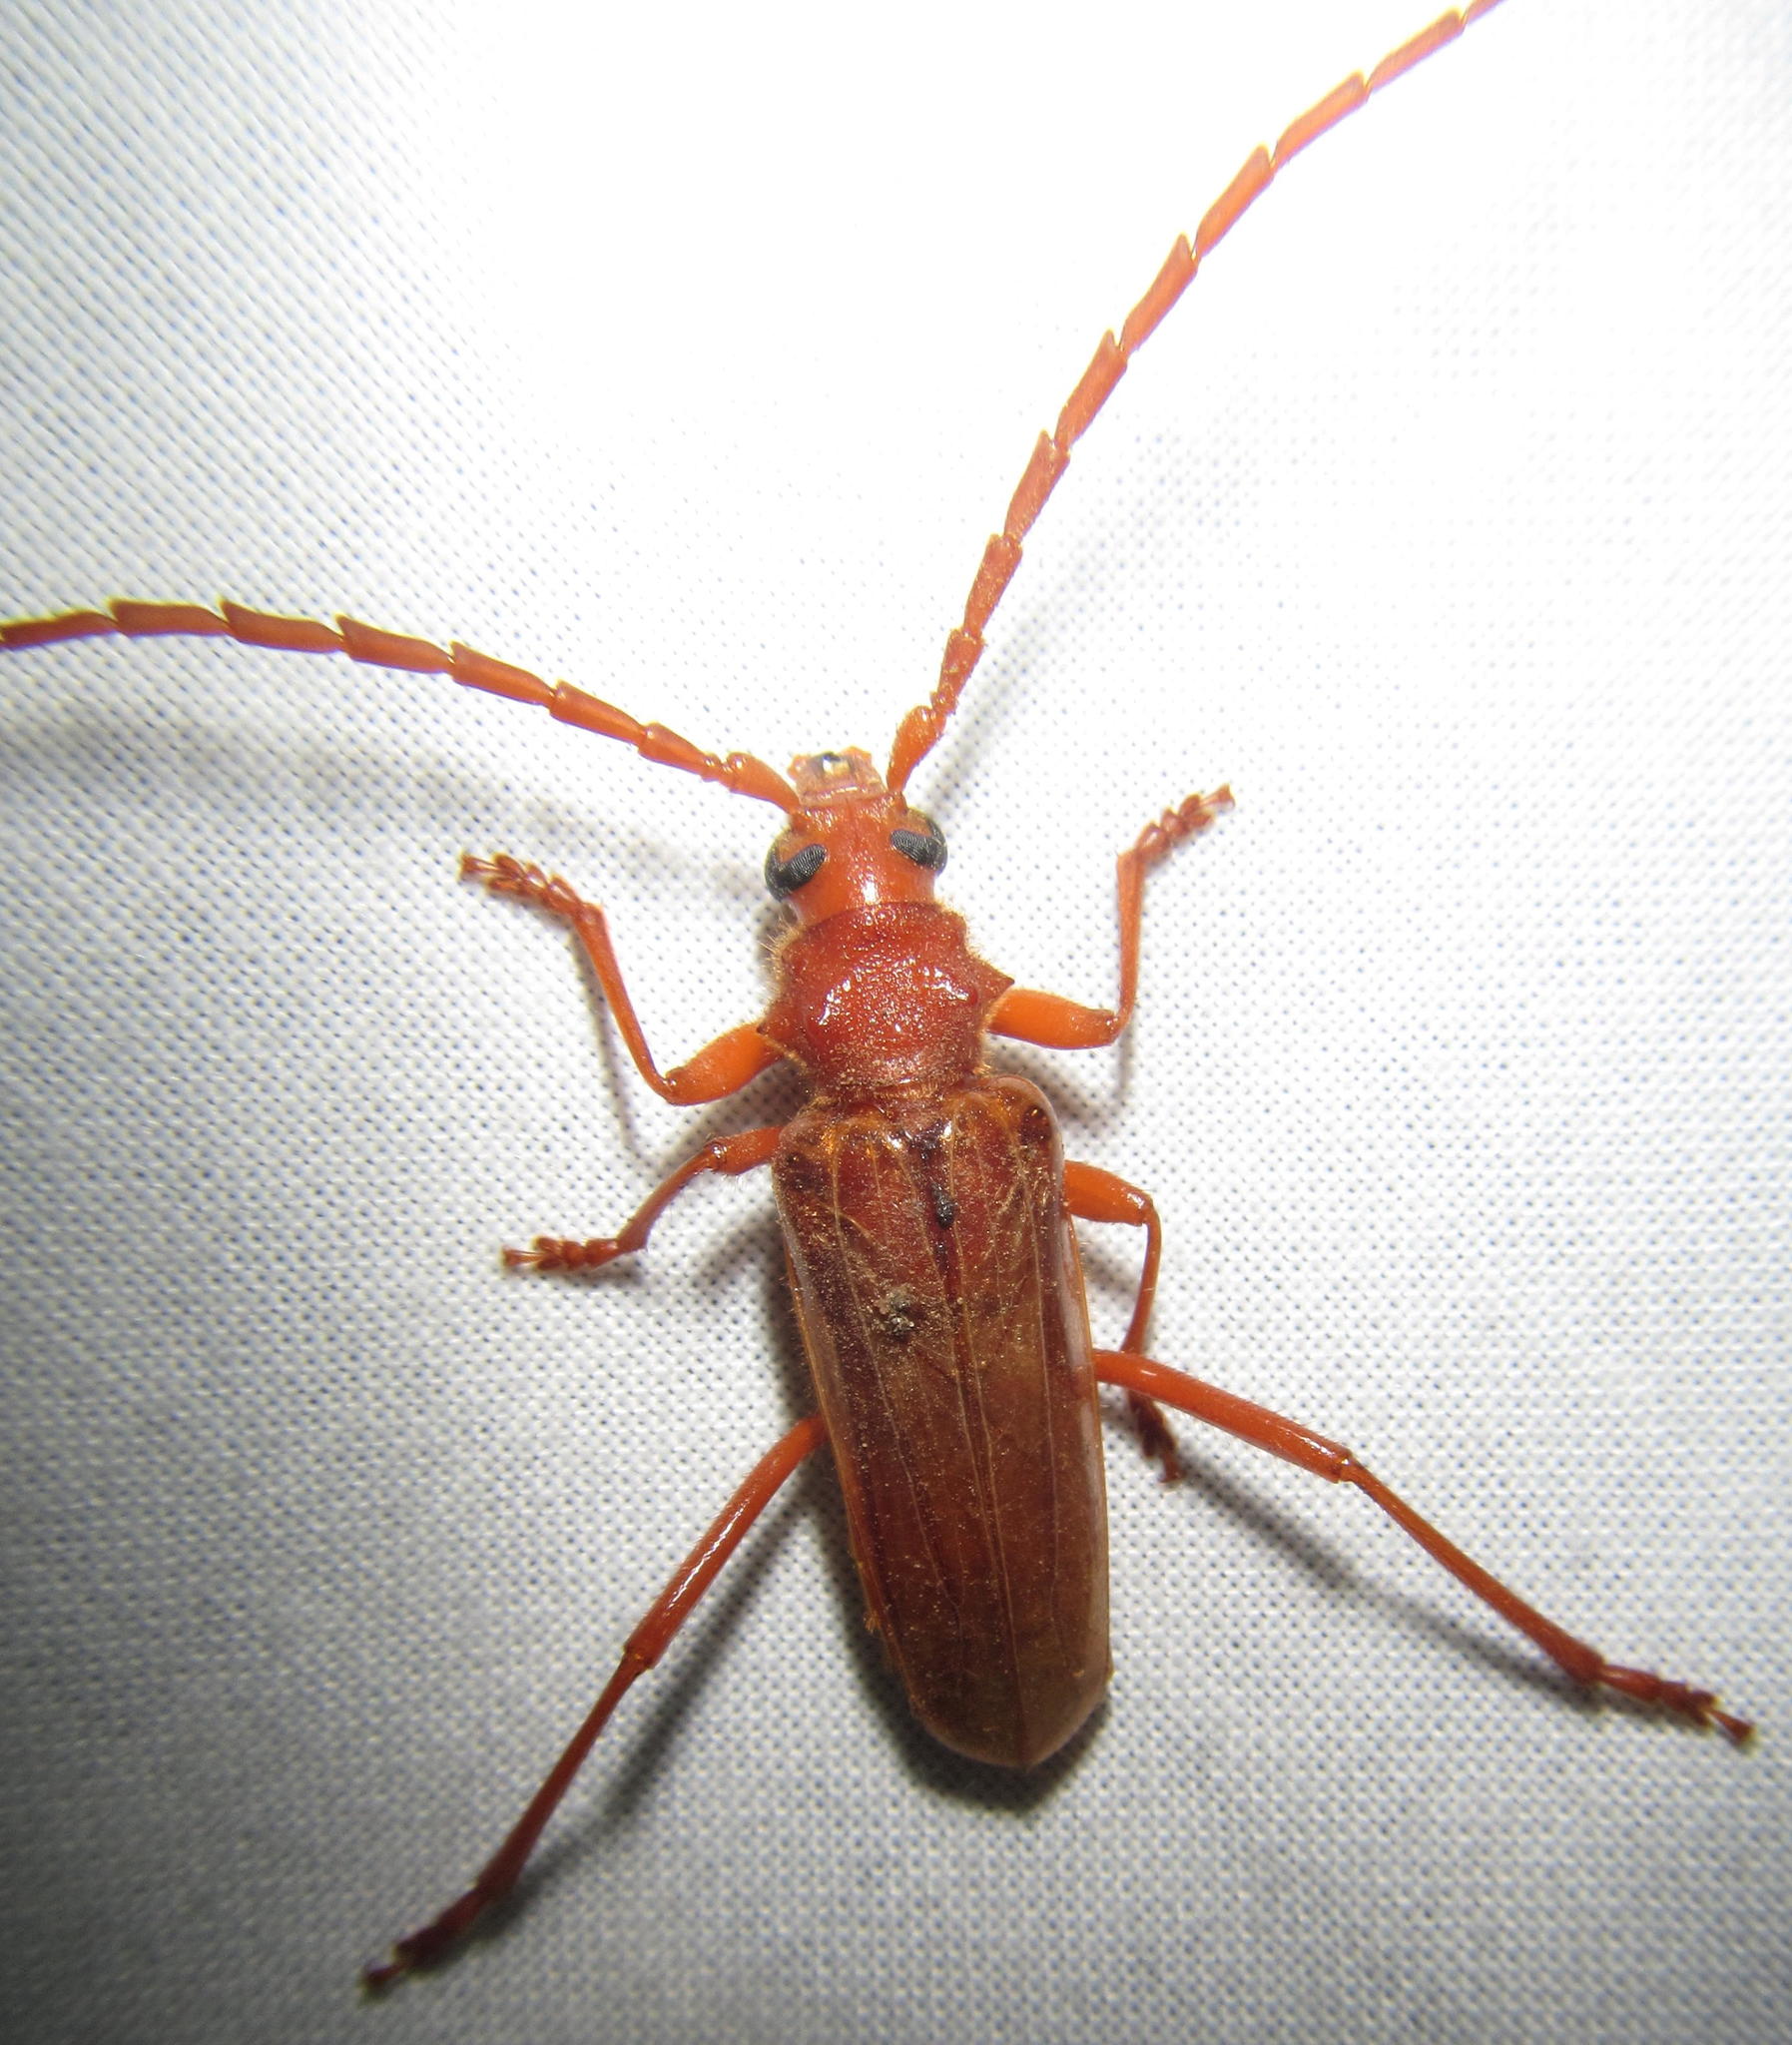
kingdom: Animalia
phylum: Arthropoda
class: Insecta
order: Coleoptera
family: Cerambycidae
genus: Gahania
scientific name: Gahania simmondsi
